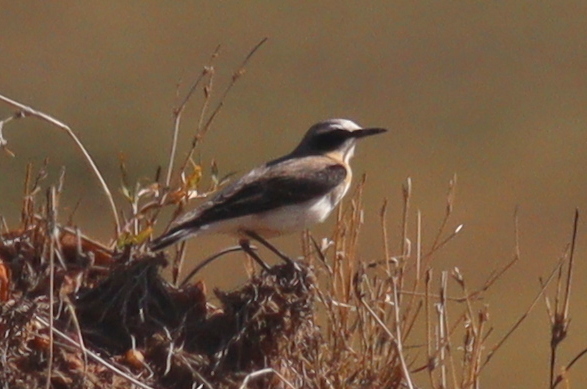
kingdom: Animalia
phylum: Chordata
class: Aves
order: Passeriformes
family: Muscicapidae
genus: Oenanthe
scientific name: Oenanthe oenanthe
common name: Northern wheatear
